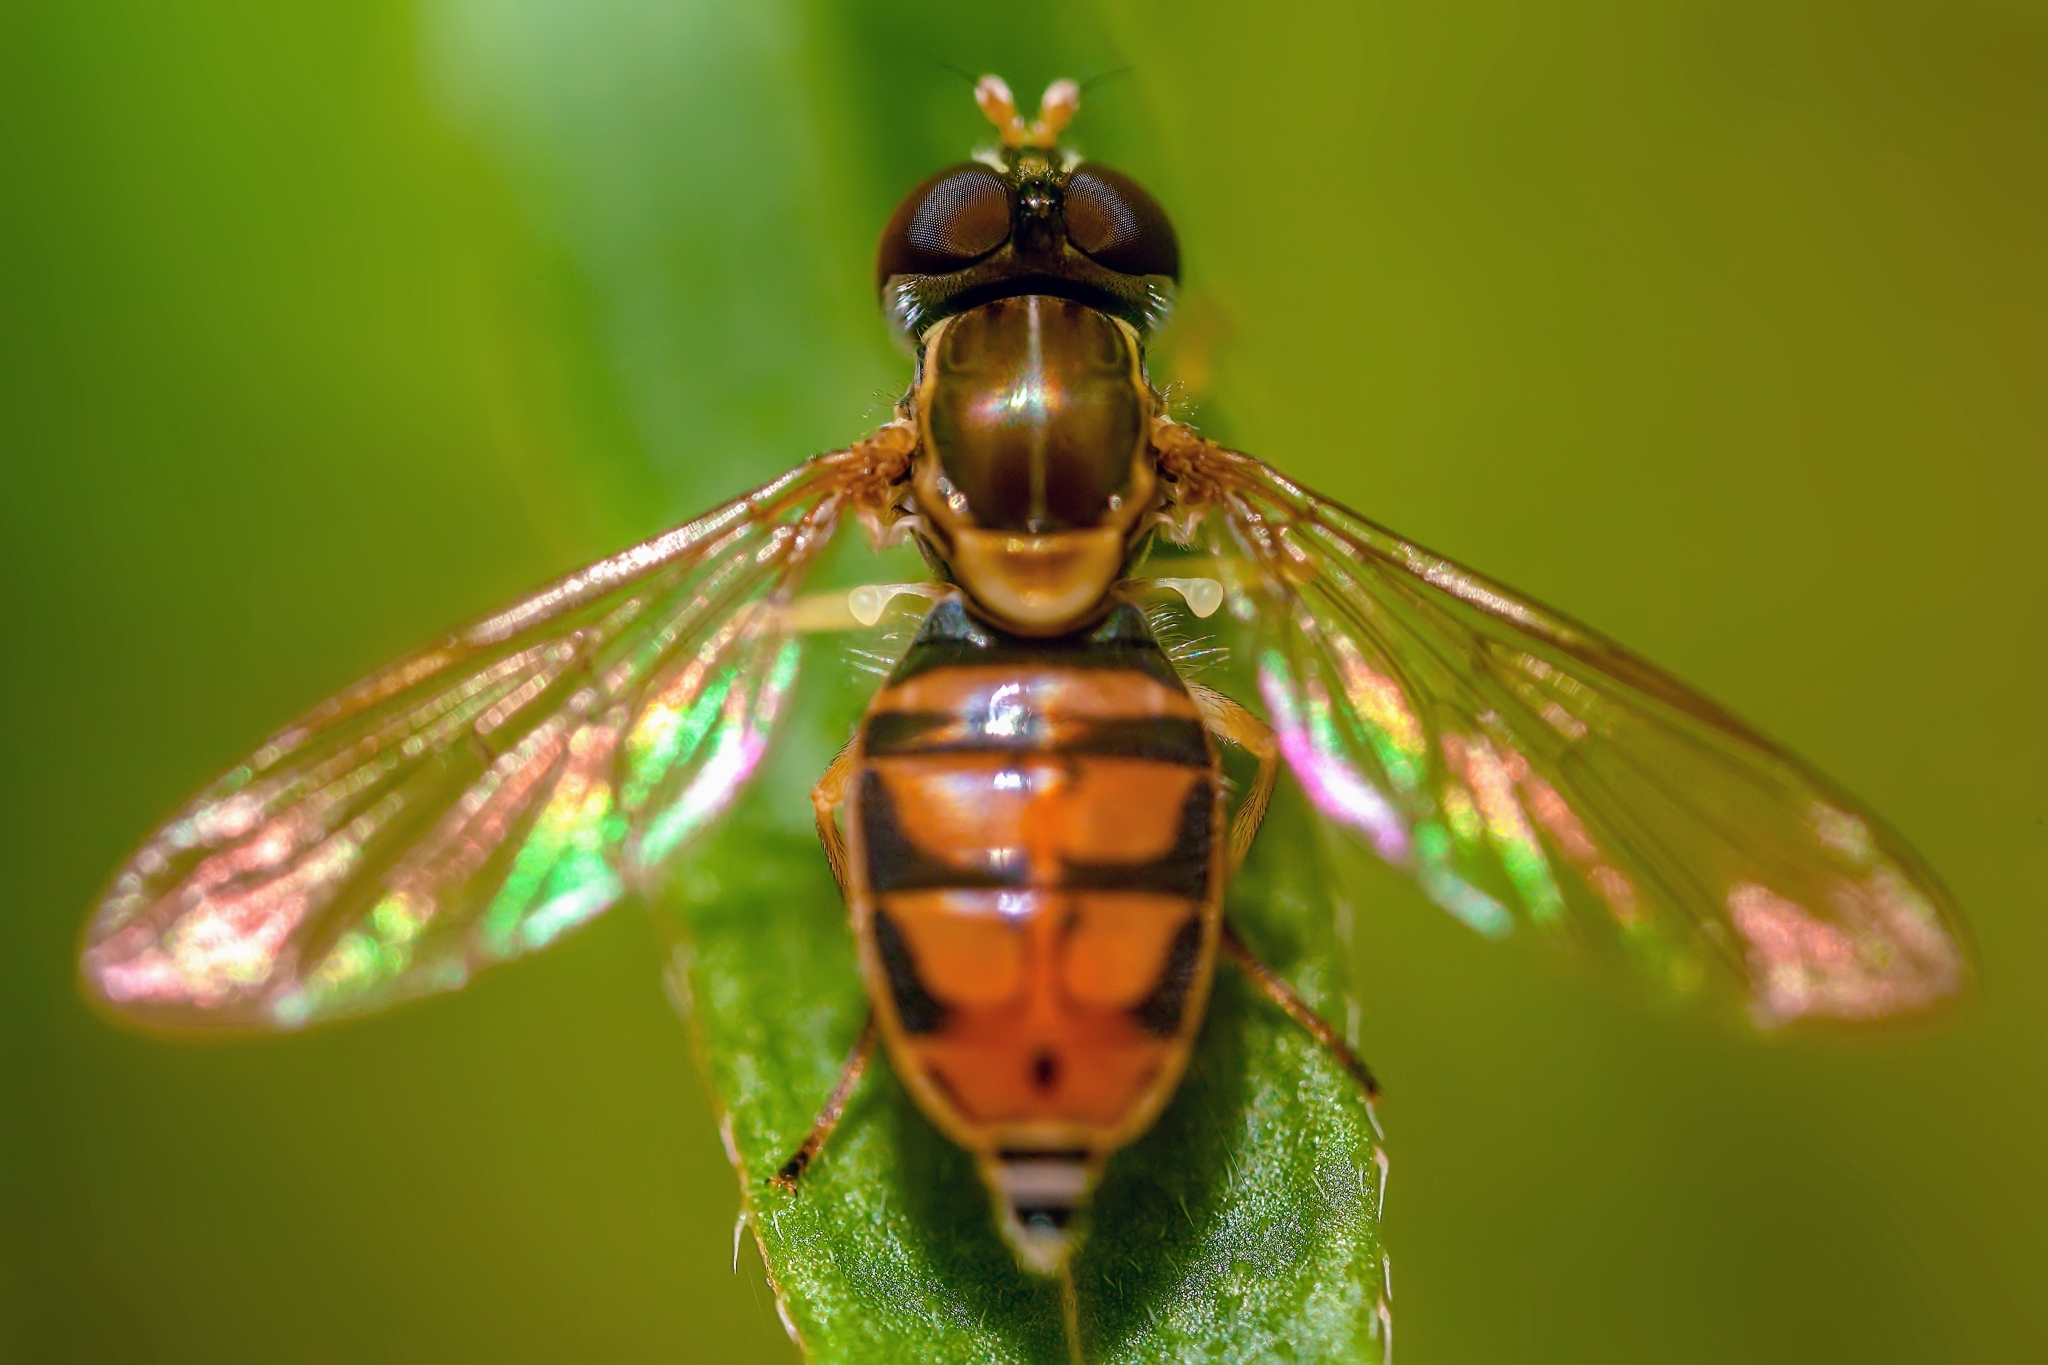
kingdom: Animalia
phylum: Arthropoda
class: Insecta
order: Diptera
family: Syrphidae
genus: Toxomerus
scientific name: Toxomerus marginatus
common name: Syrphid fly
